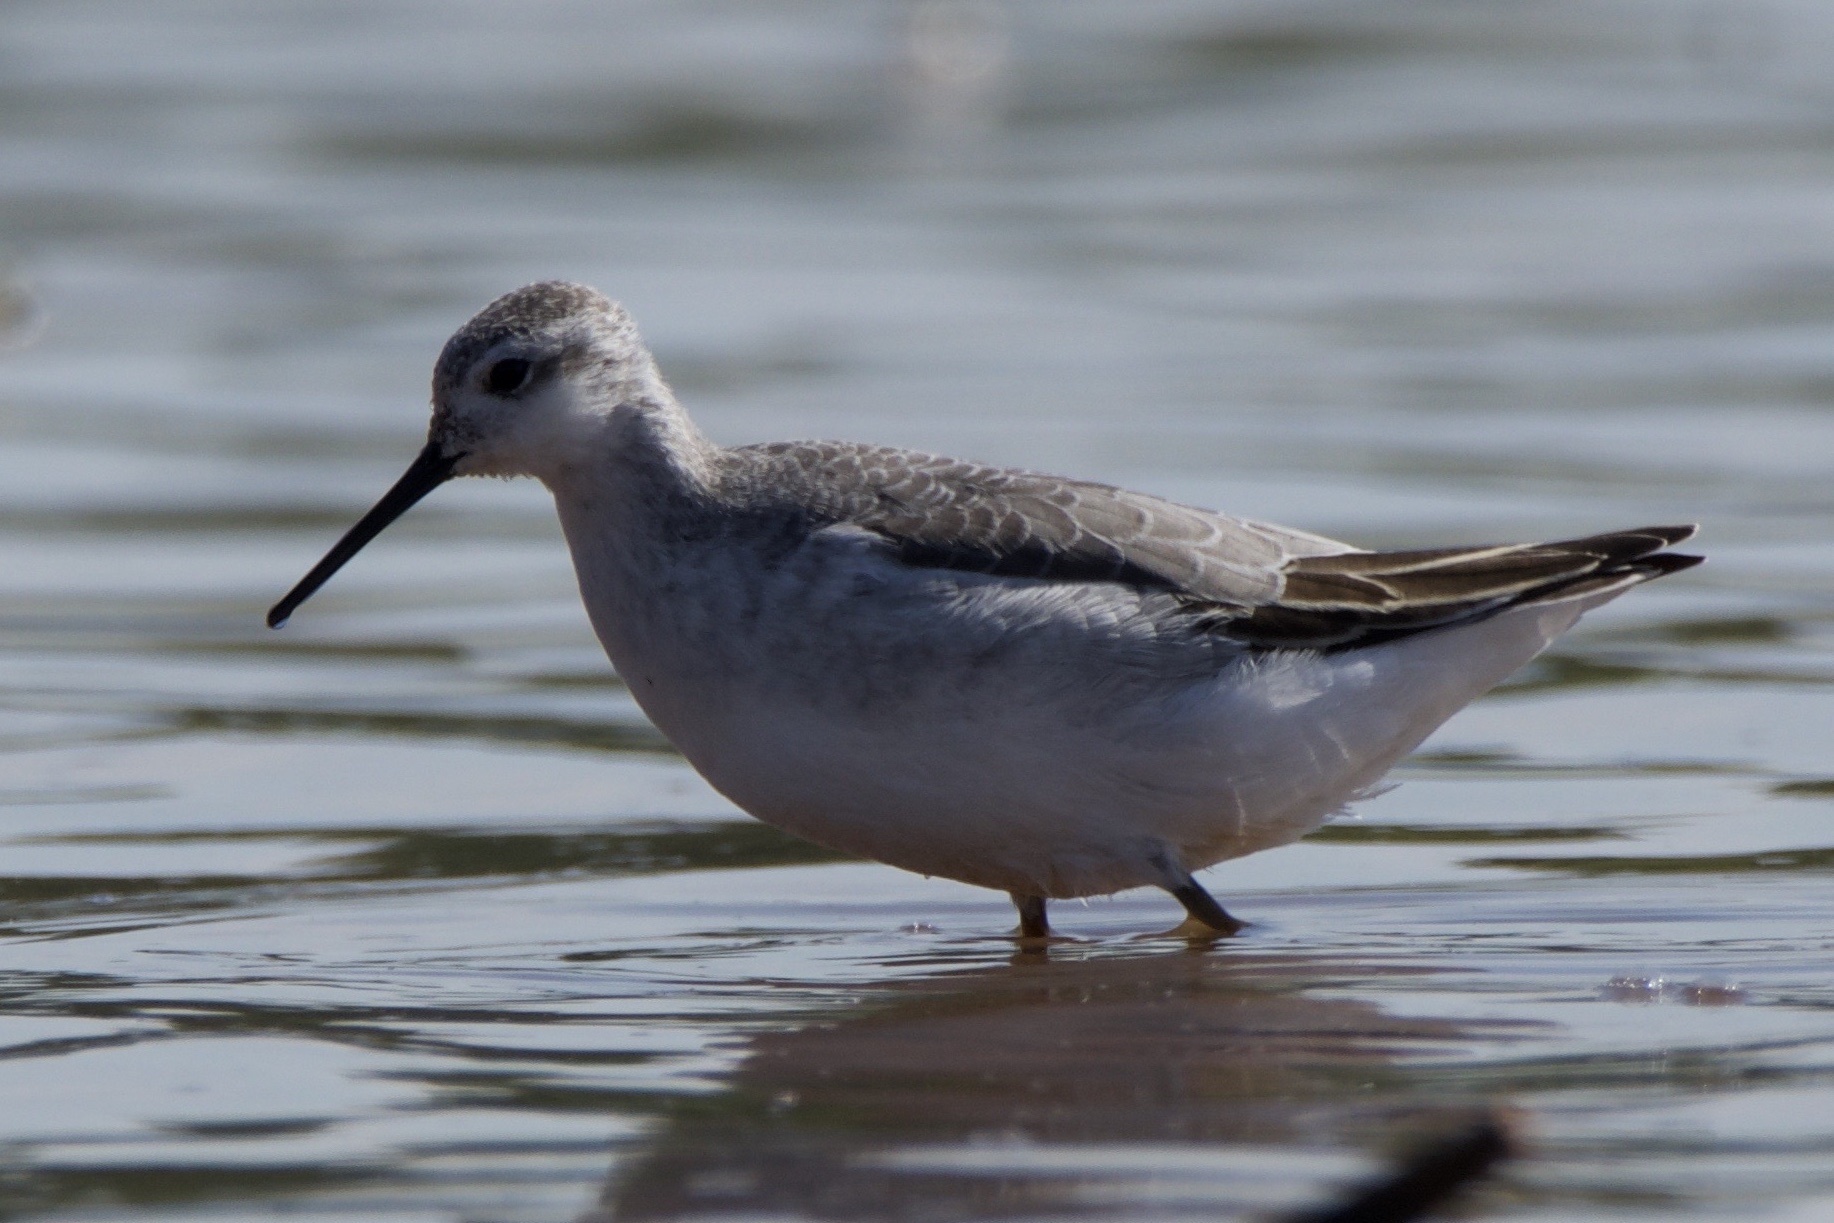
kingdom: Animalia
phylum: Chordata
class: Aves
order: Charadriiformes
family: Scolopacidae
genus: Phalaropus
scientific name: Phalaropus tricolor
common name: Wilson's phalarope
